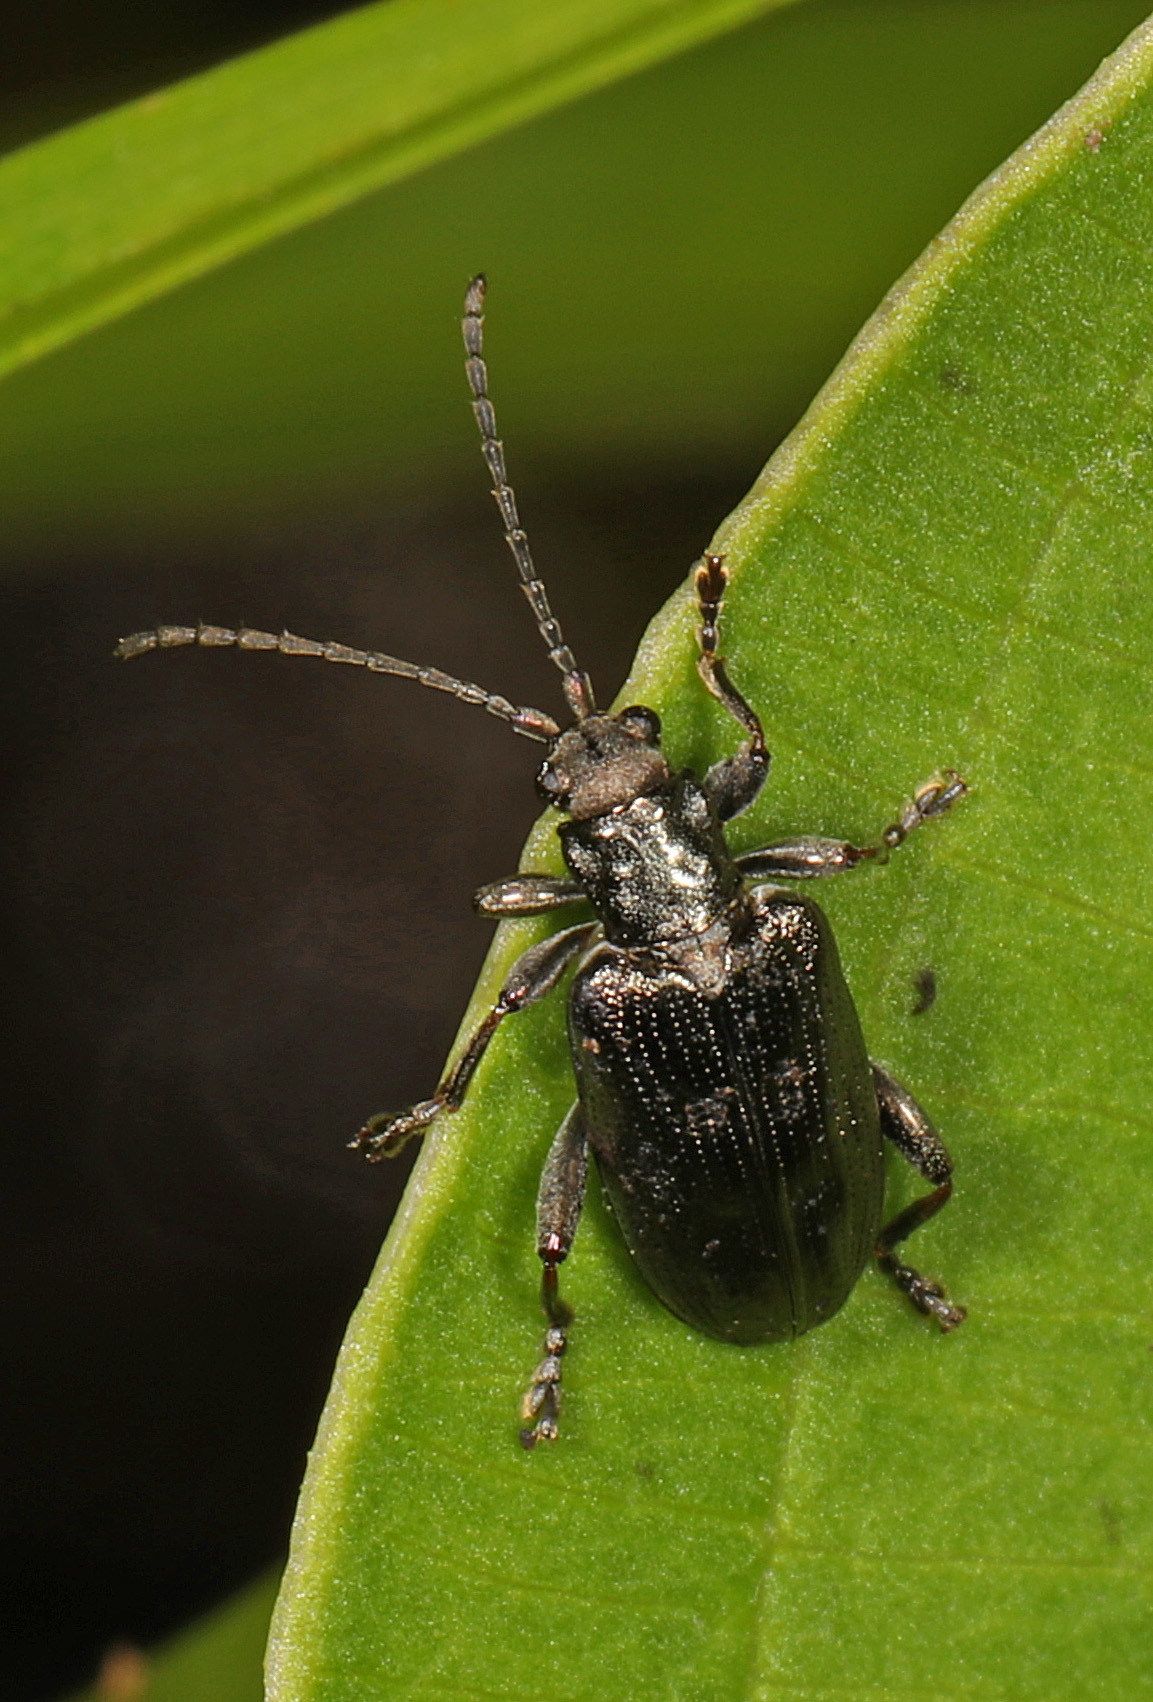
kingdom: Animalia
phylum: Arthropoda
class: Insecta
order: Coleoptera
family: Chrysomelidae
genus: Donacia
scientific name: Donacia caerulea
